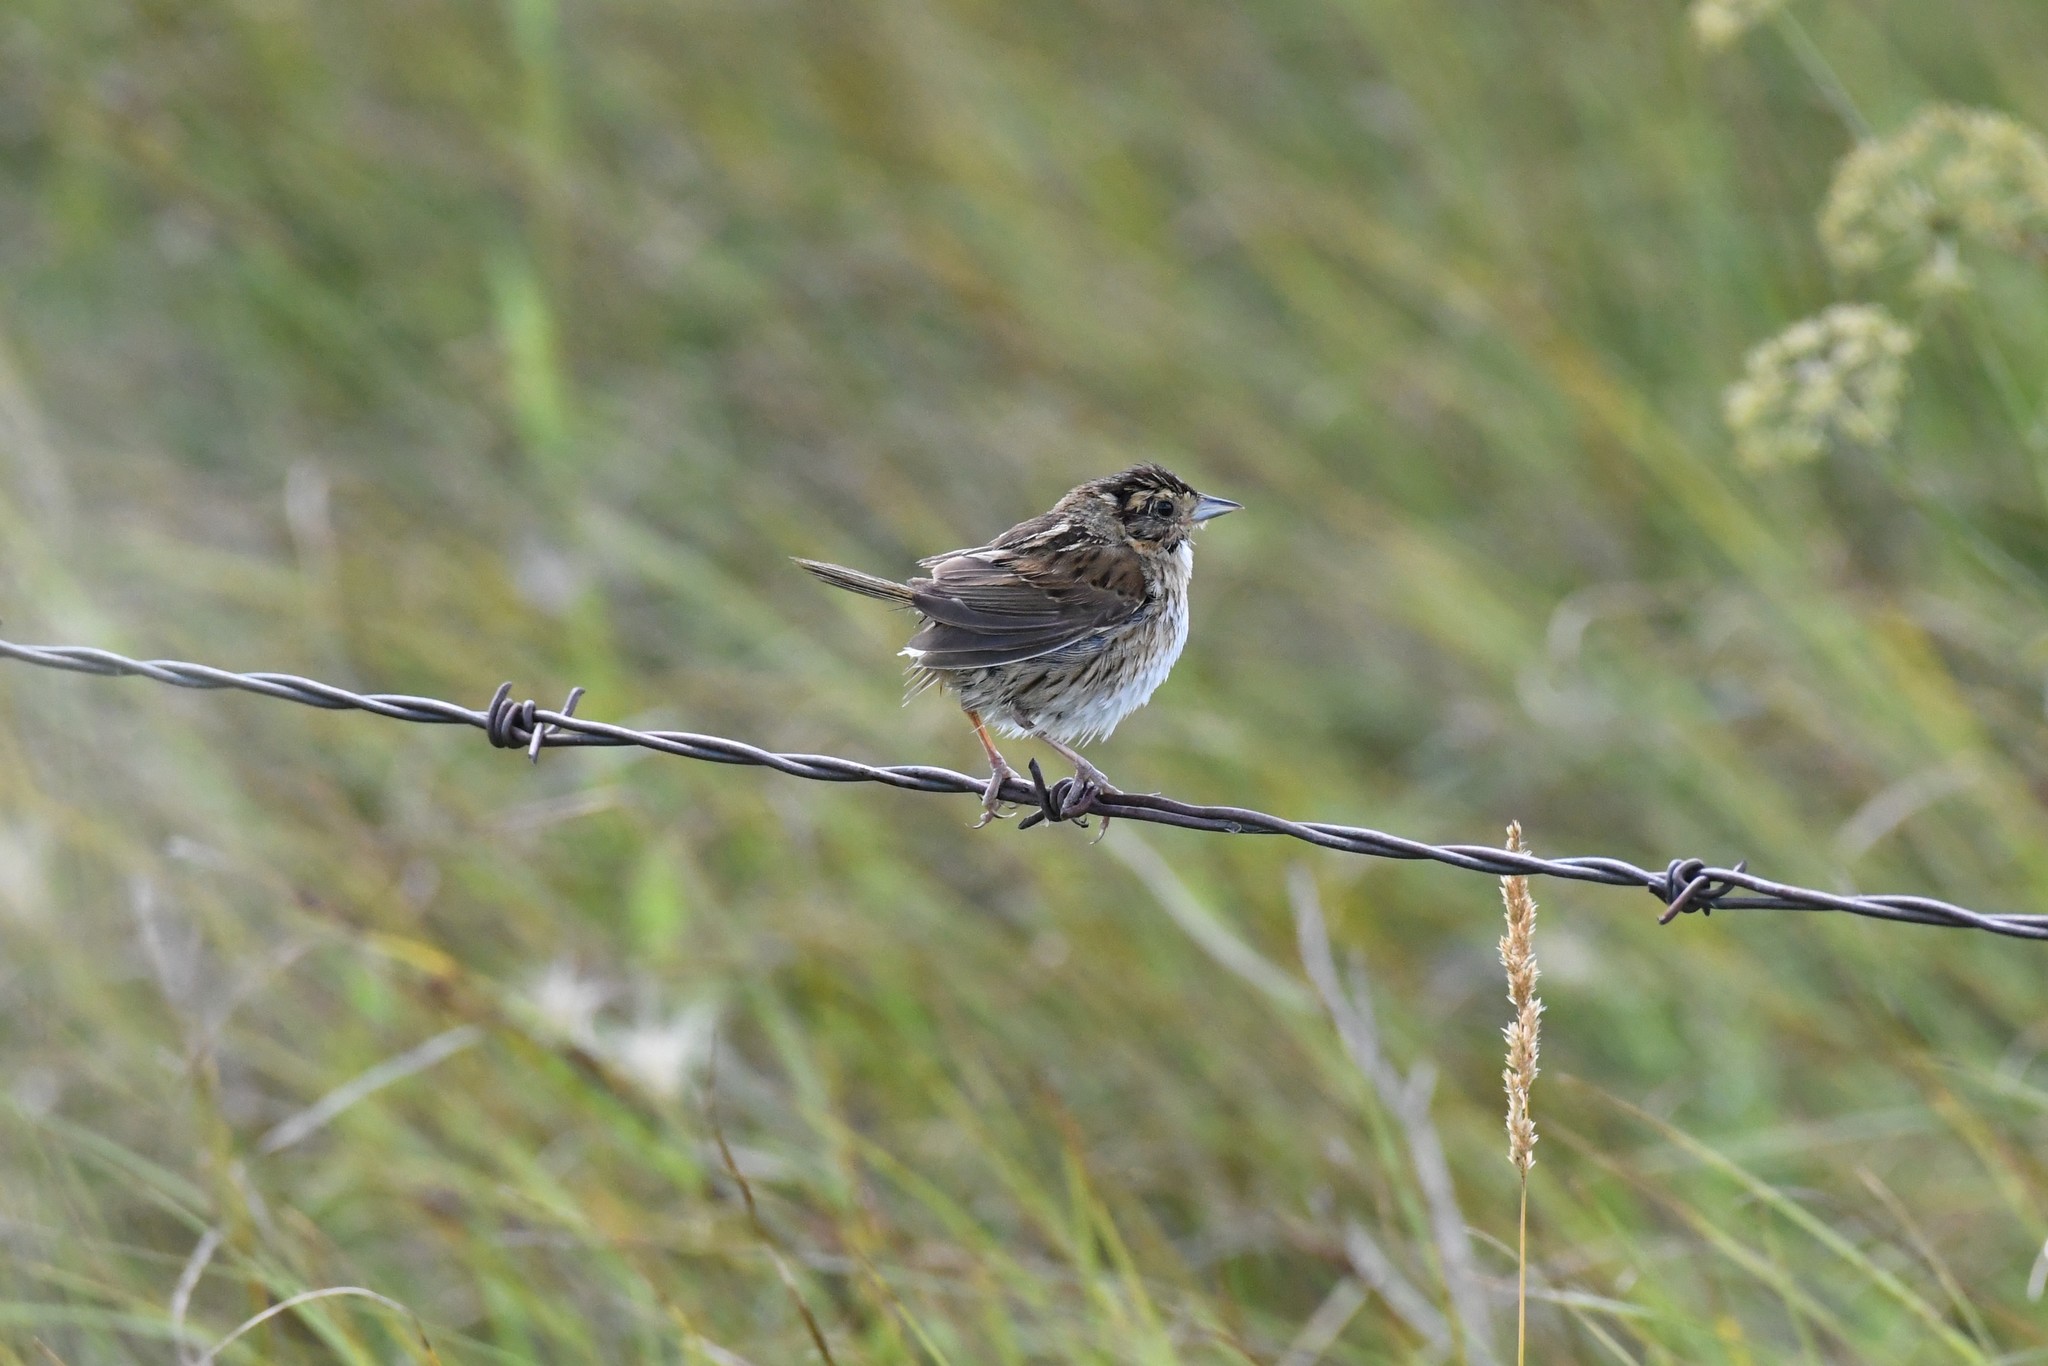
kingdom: Animalia
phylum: Chordata
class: Aves
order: Passeriformes
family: Passerellidae
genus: Ammospiza
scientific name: Ammospiza nelsoni
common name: Nelson's sparrow
